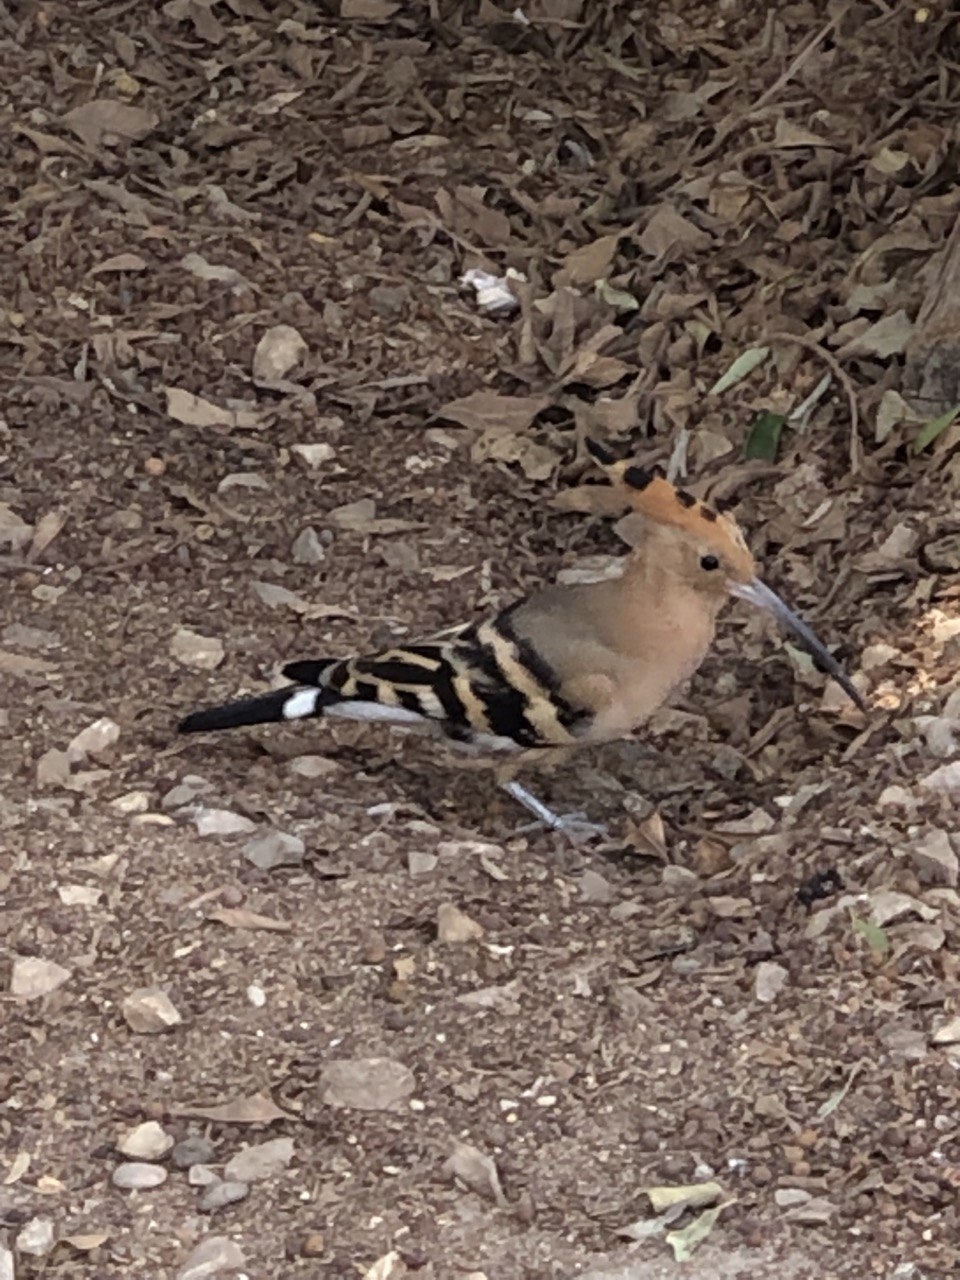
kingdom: Animalia
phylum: Chordata
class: Aves
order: Bucerotiformes
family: Upupidae
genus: Upupa
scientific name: Upupa epops
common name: Eurasian hoopoe
